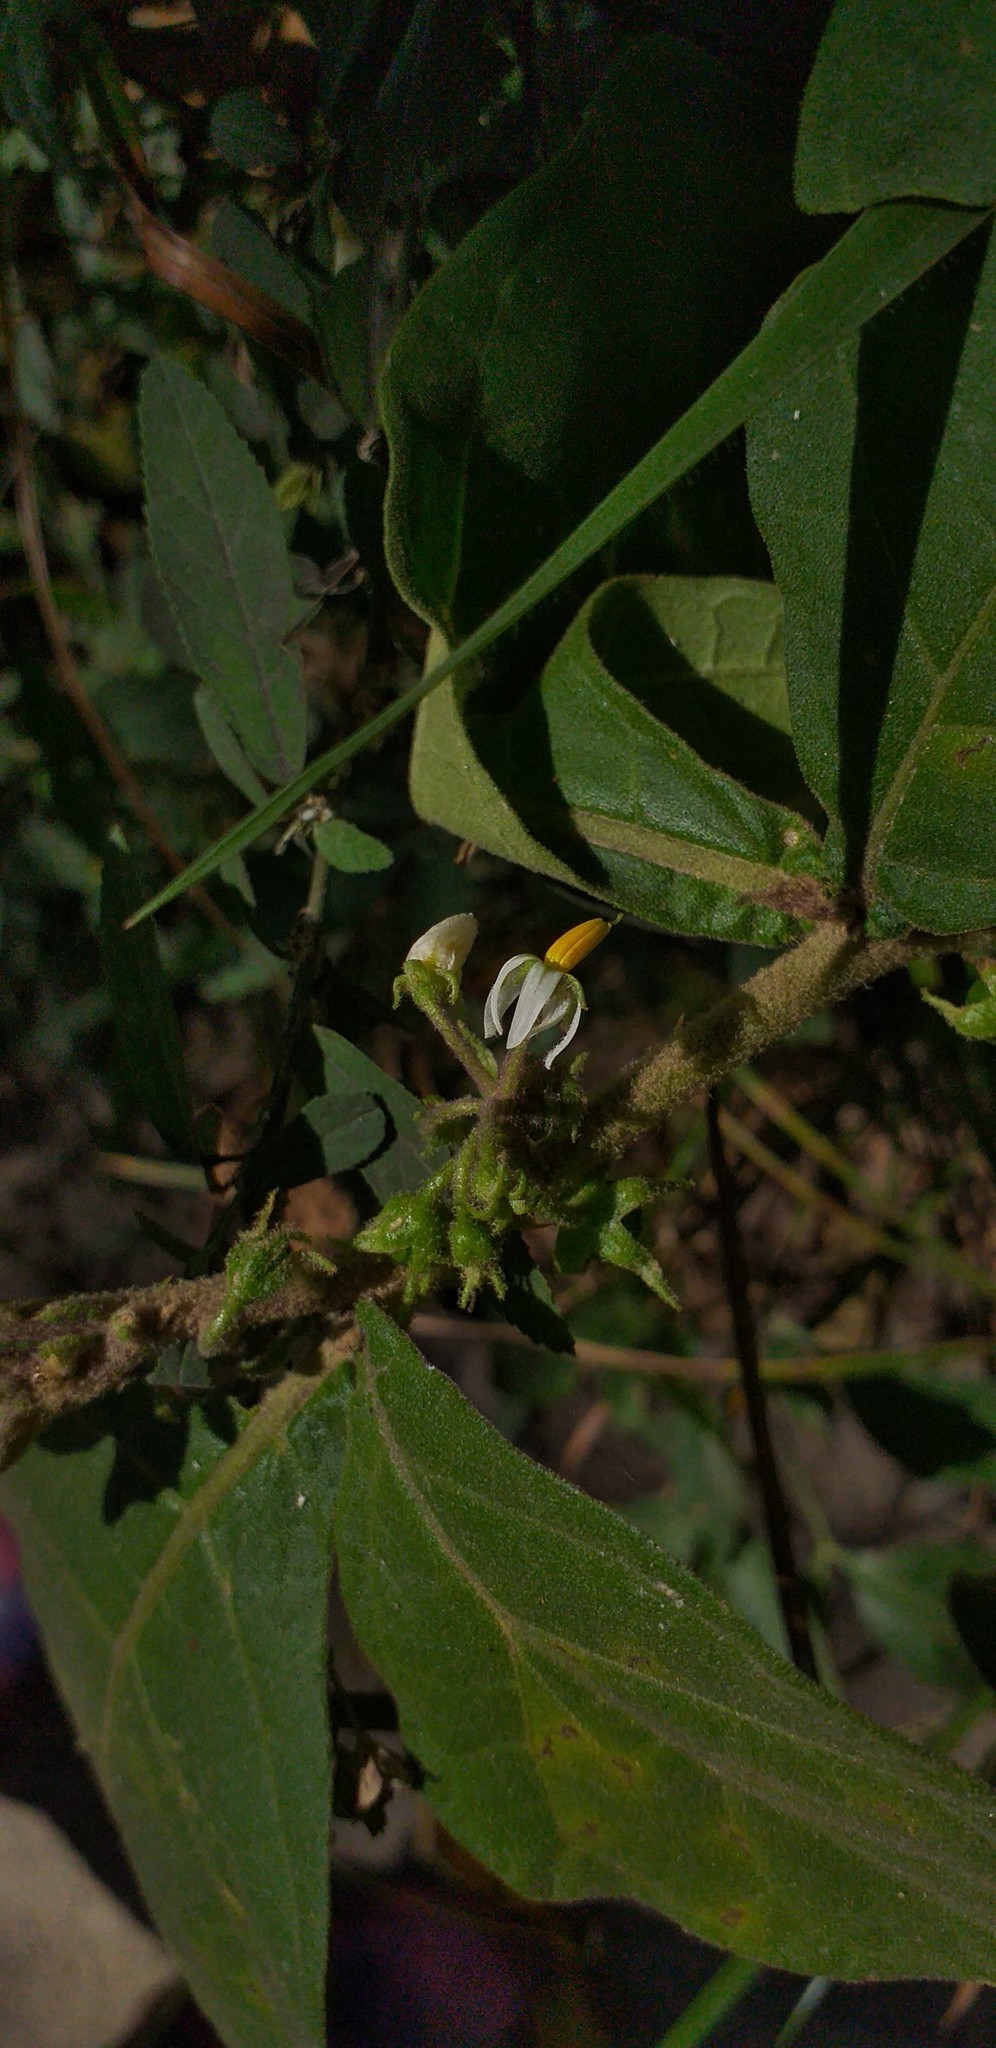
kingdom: Plantae
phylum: Tracheophyta
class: Magnoliopsida
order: Solanales
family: Solanaceae
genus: Solanum
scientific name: Solanum jamaicense
